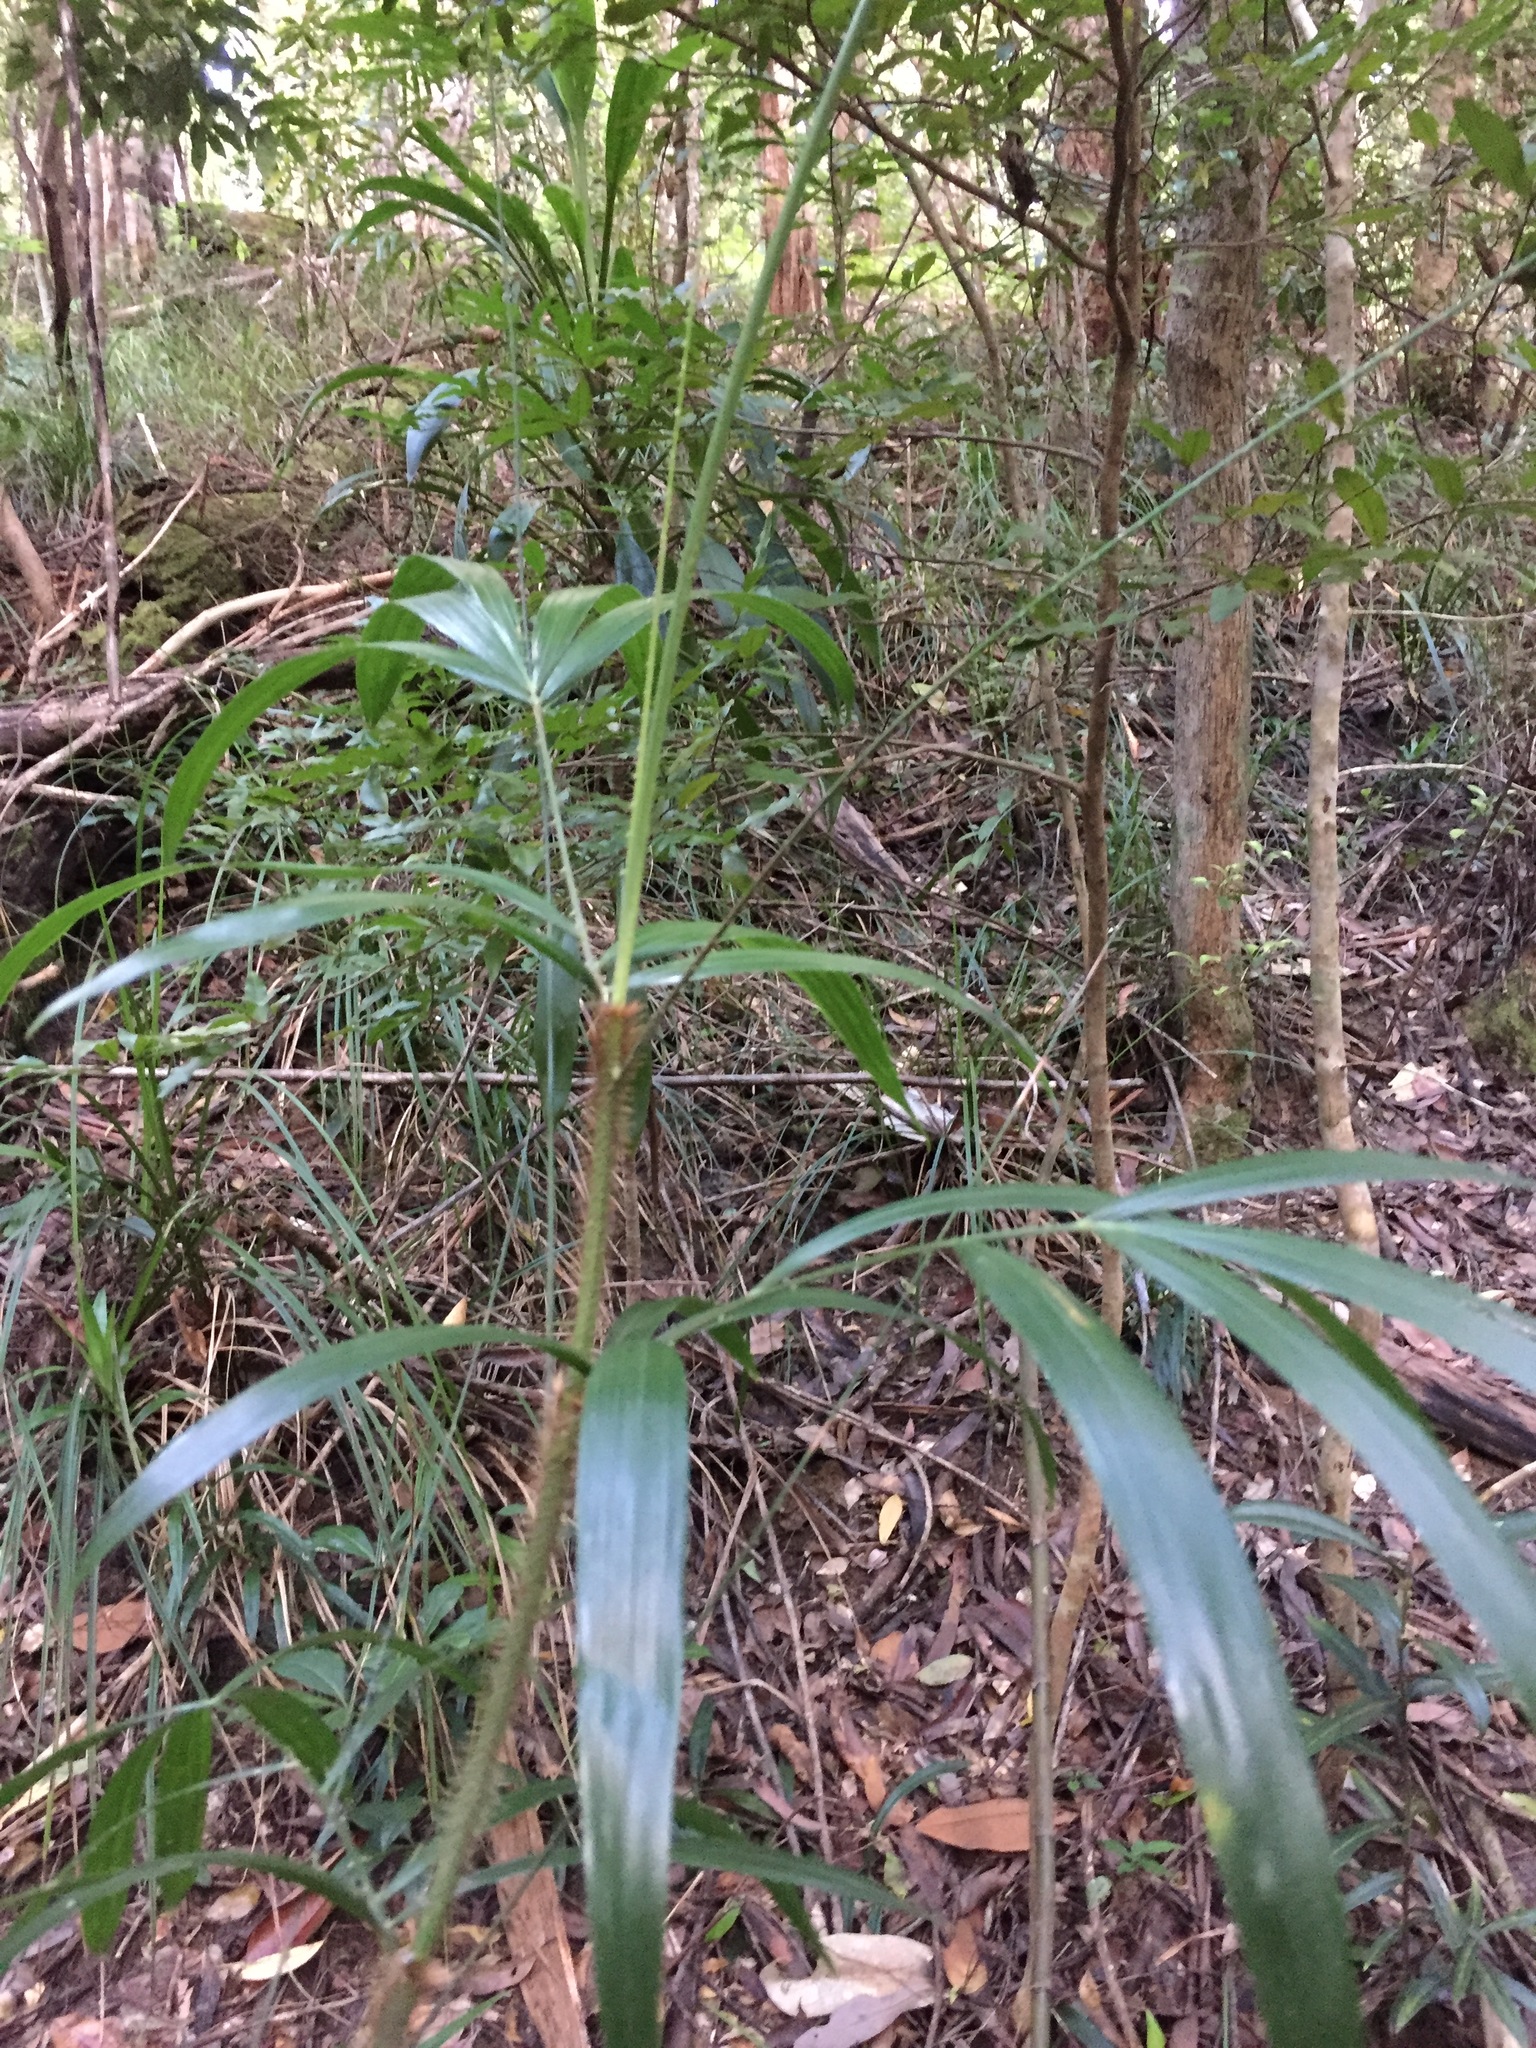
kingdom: Plantae
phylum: Tracheophyta
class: Liliopsida
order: Arecales
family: Arecaceae
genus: Calamus
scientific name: Calamus muelleri
